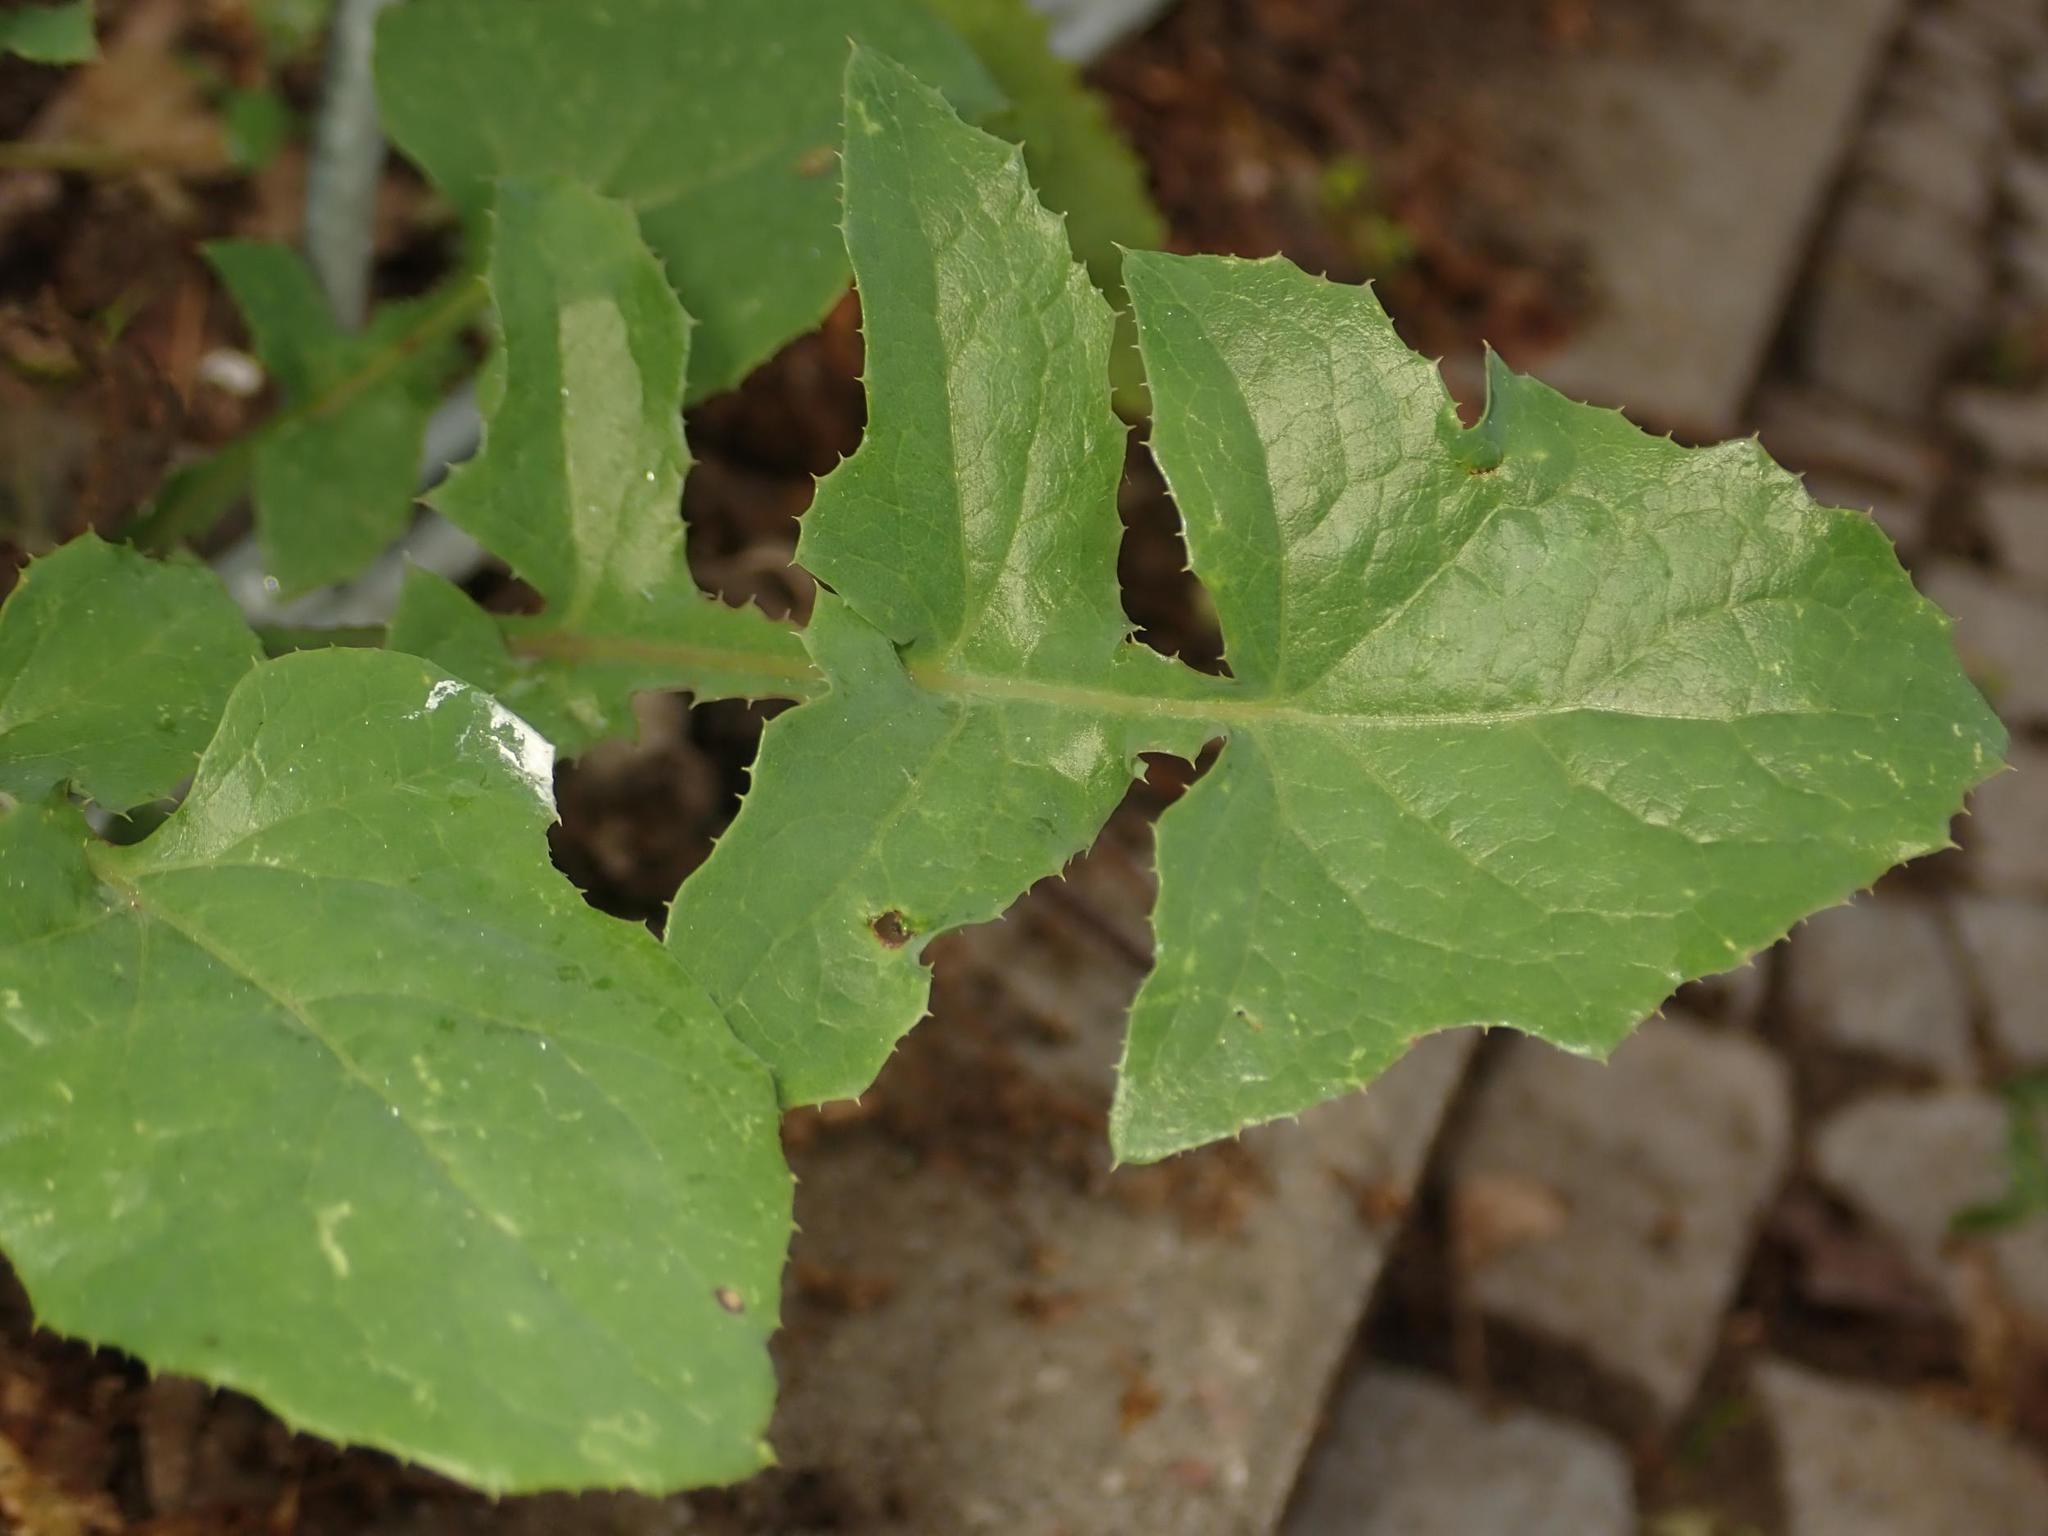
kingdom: Plantae
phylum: Tracheophyta
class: Magnoliopsida
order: Asterales
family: Asteraceae
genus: Sonchus
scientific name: Sonchus oleraceus
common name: Common sowthistle
